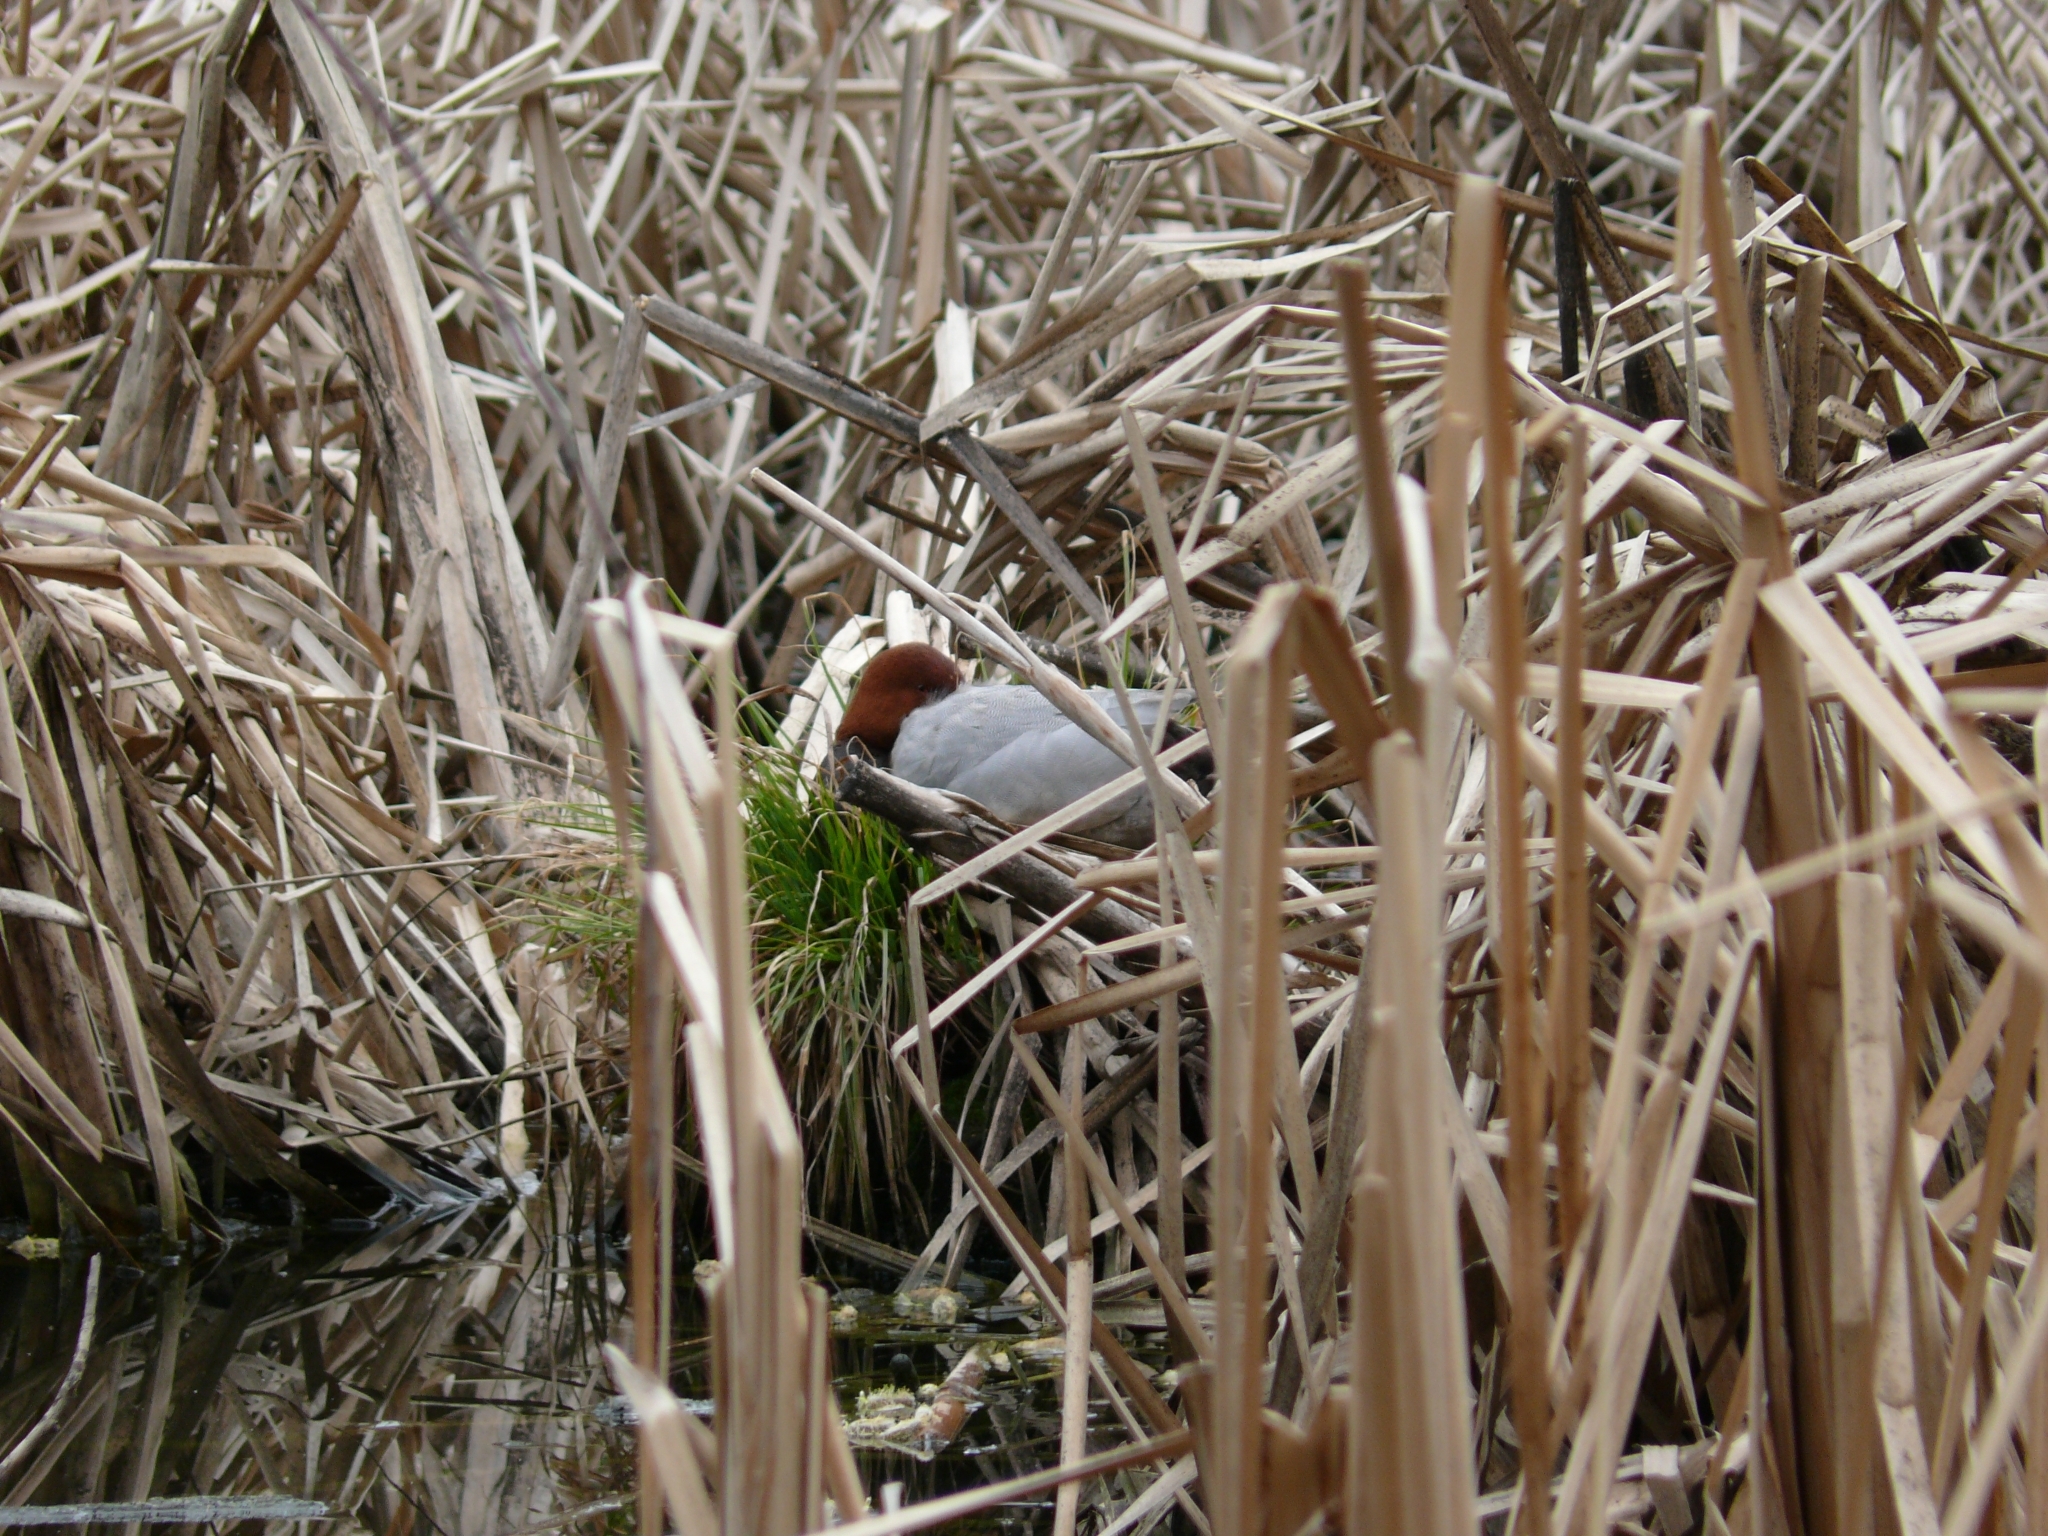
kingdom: Animalia
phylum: Chordata
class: Aves
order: Anseriformes
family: Anatidae
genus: Aythya
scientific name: Aythya ferina
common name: Common pochard
